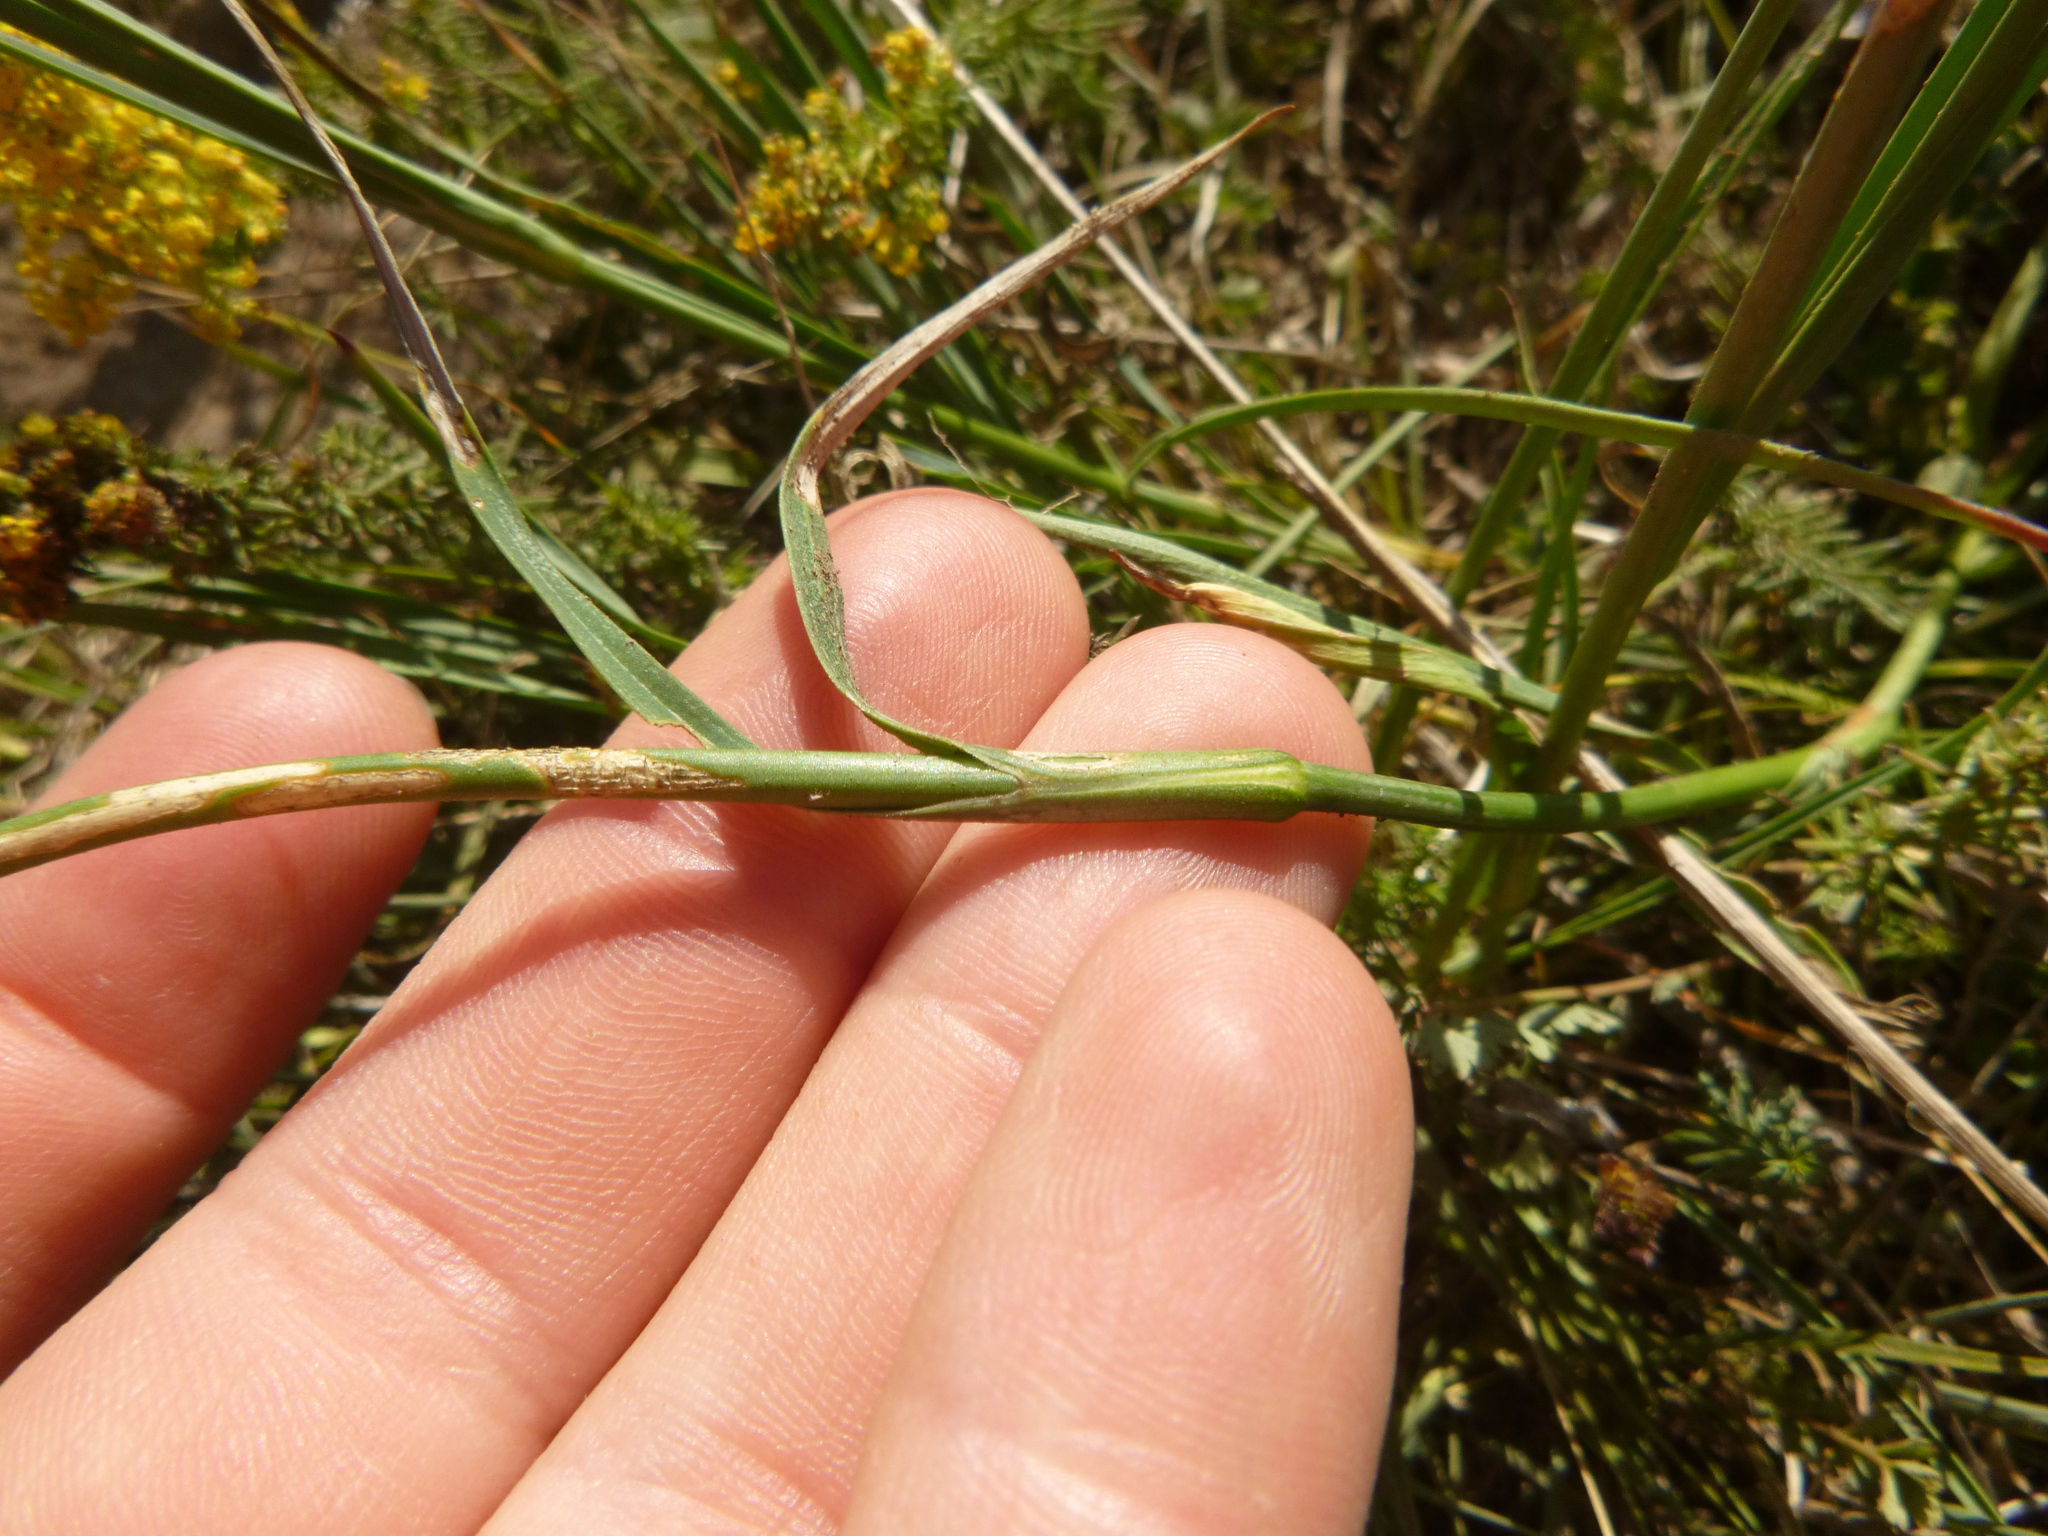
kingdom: Plantae
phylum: Tracheophyta
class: Magnoliopsida
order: Caryophyllales
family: Caryophyllaceae
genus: Dianthus
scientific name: Dianthus carthusianorum
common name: Carthusian pink
